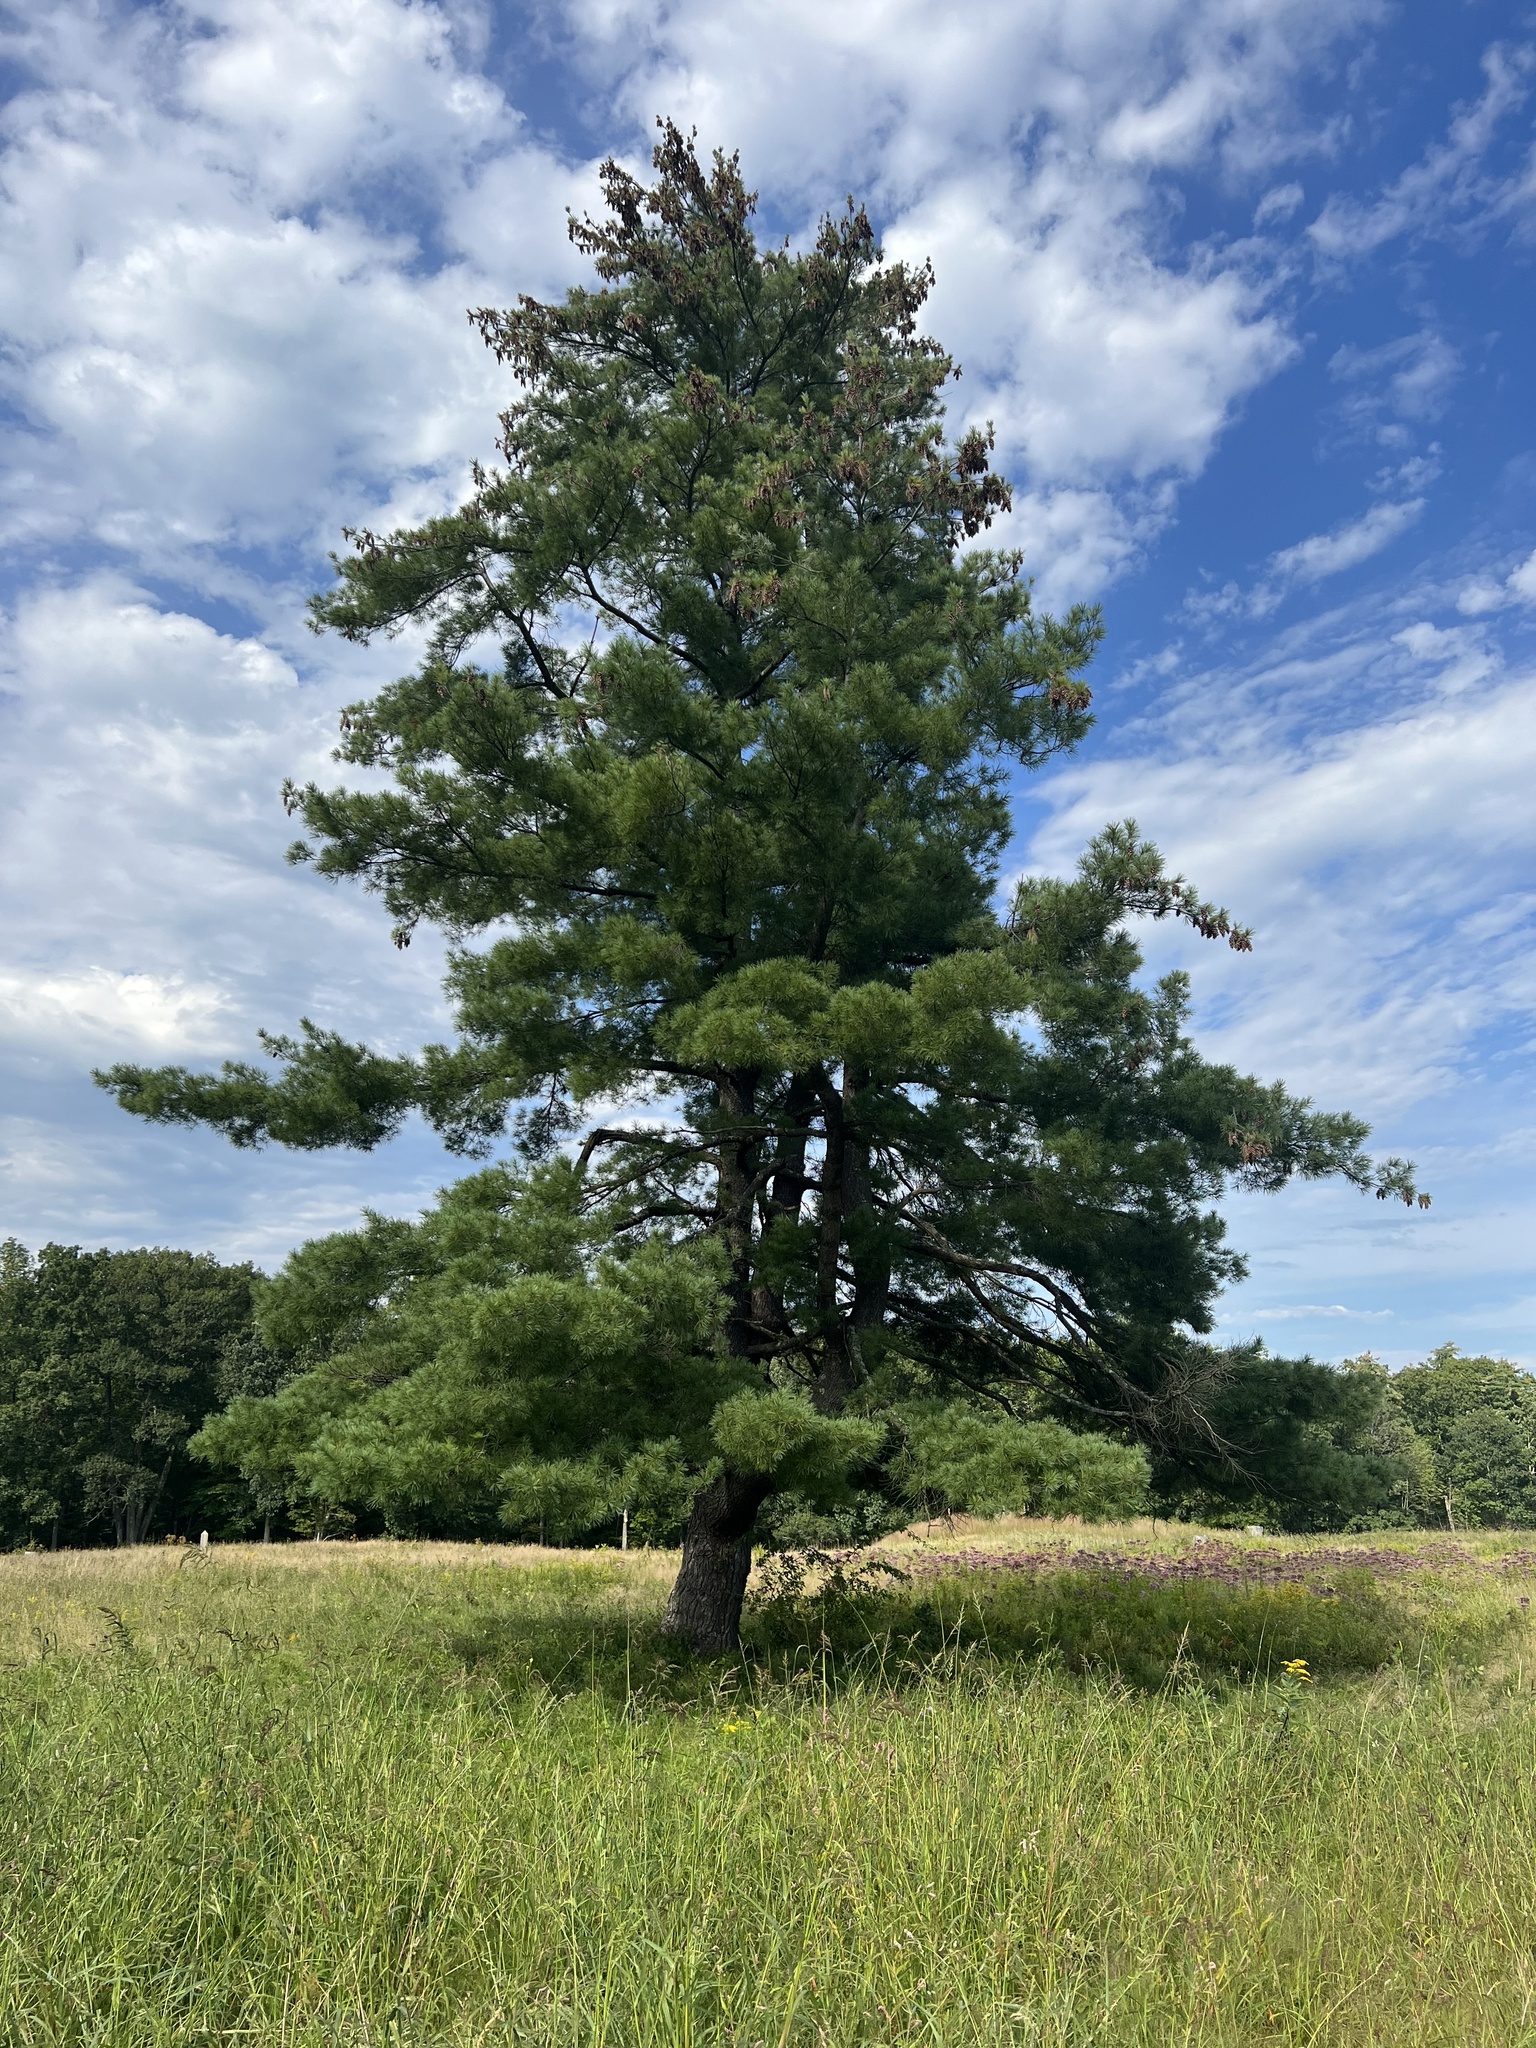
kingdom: Plantae
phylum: Tracheophyta
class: Pinopsida
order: Pinales
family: Pinaceae
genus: Pinus
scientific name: Pinus strobus
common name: Weymouth pine
